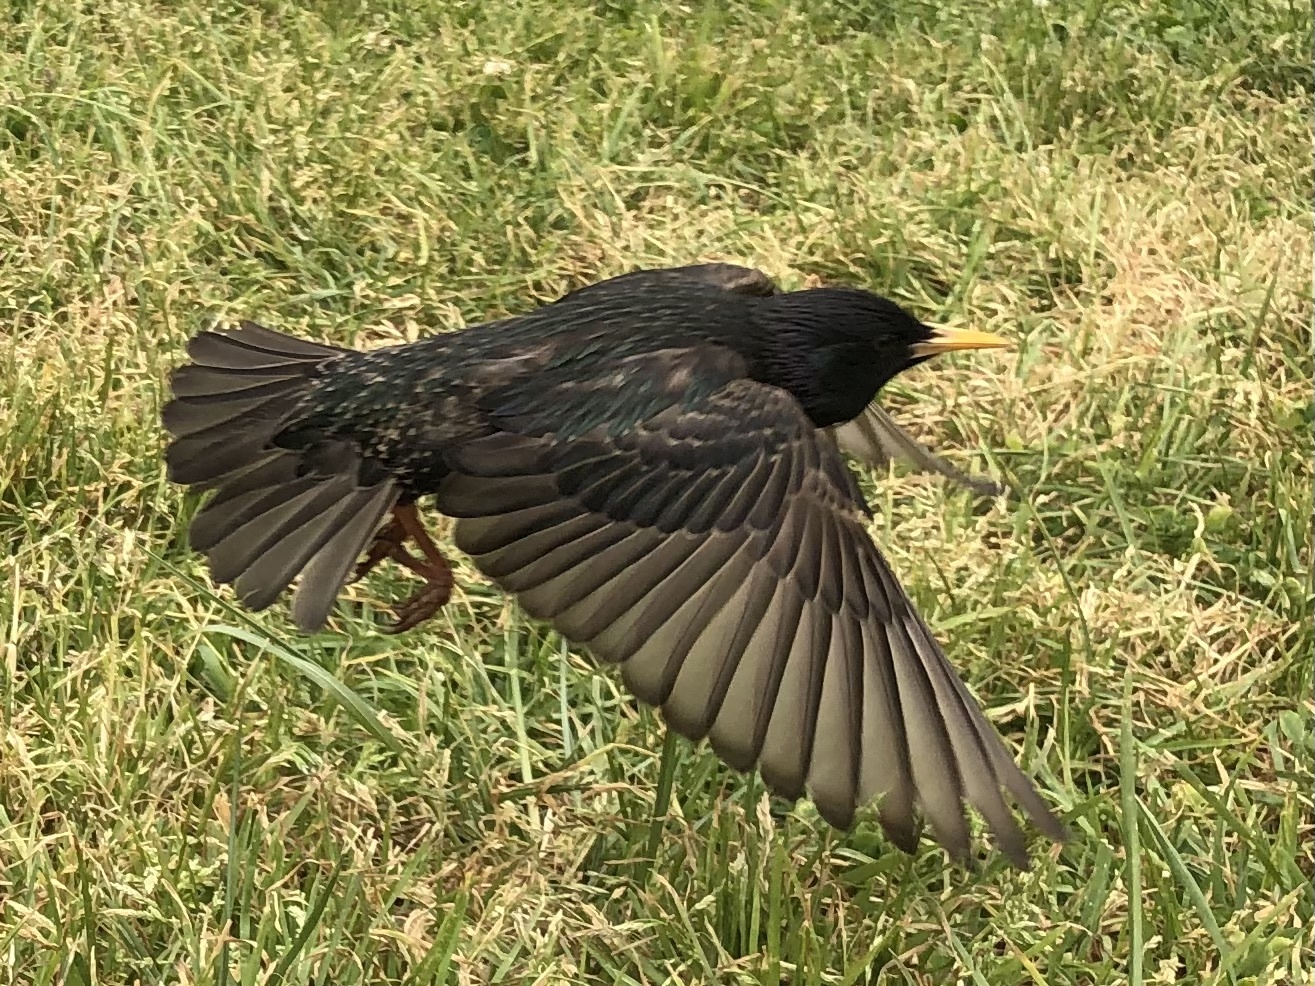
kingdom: Animalia
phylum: Chordata
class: Aves
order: Passeriformes
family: Sturnidae
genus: Sturnus
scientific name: Sturnus vulgaris
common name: Common starling
